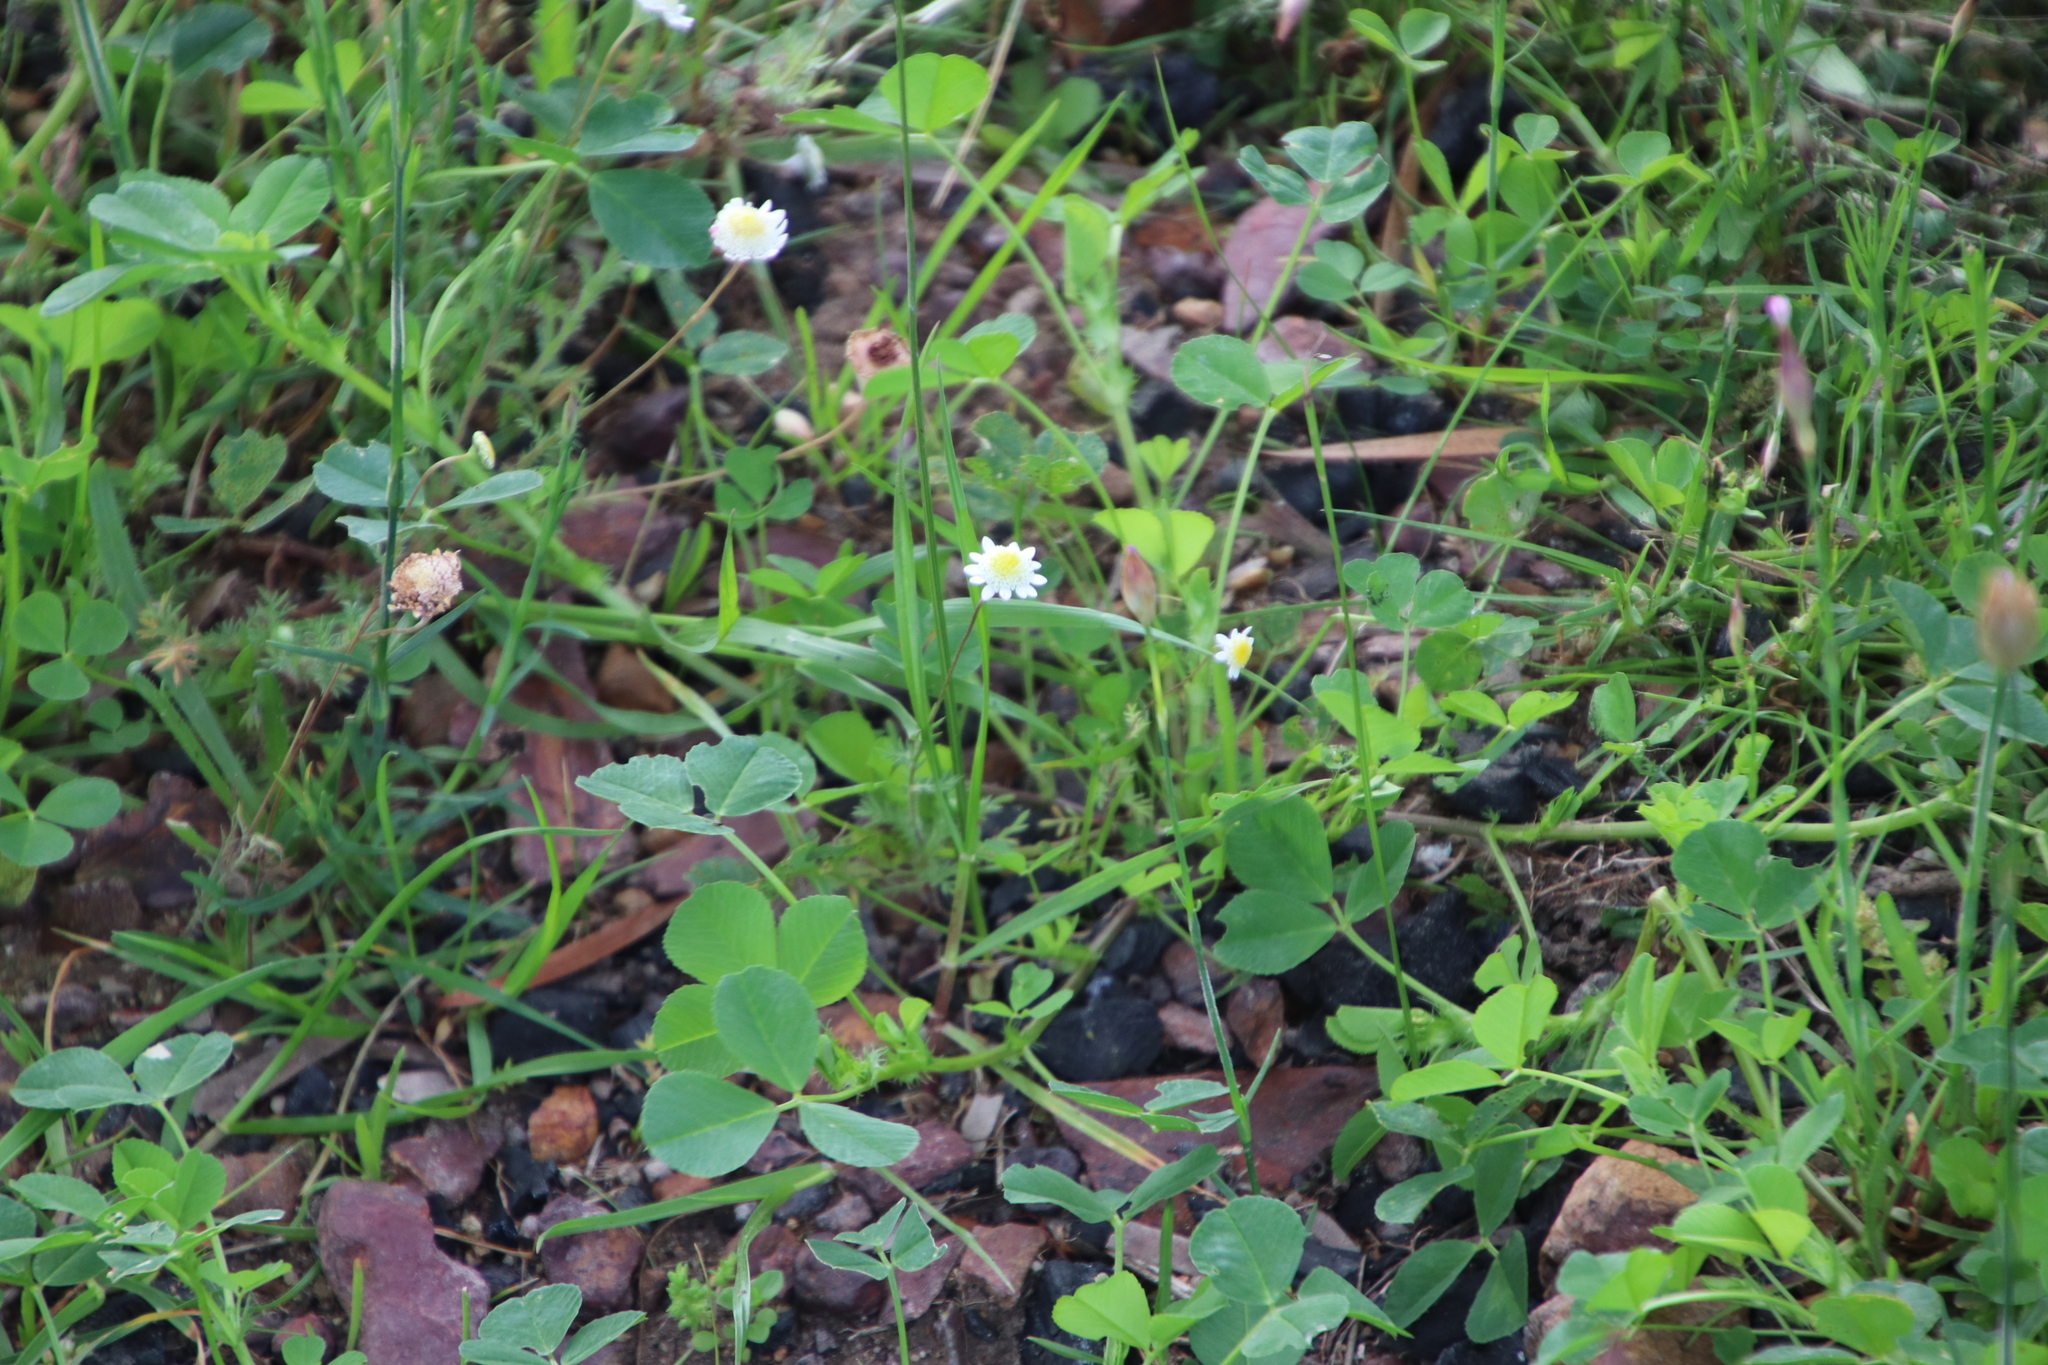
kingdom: Plantae
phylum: Tracheophyta
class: Magnoliopsida
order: Asterales
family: Asteraceae
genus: Cotula
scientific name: Cotula turbinata
